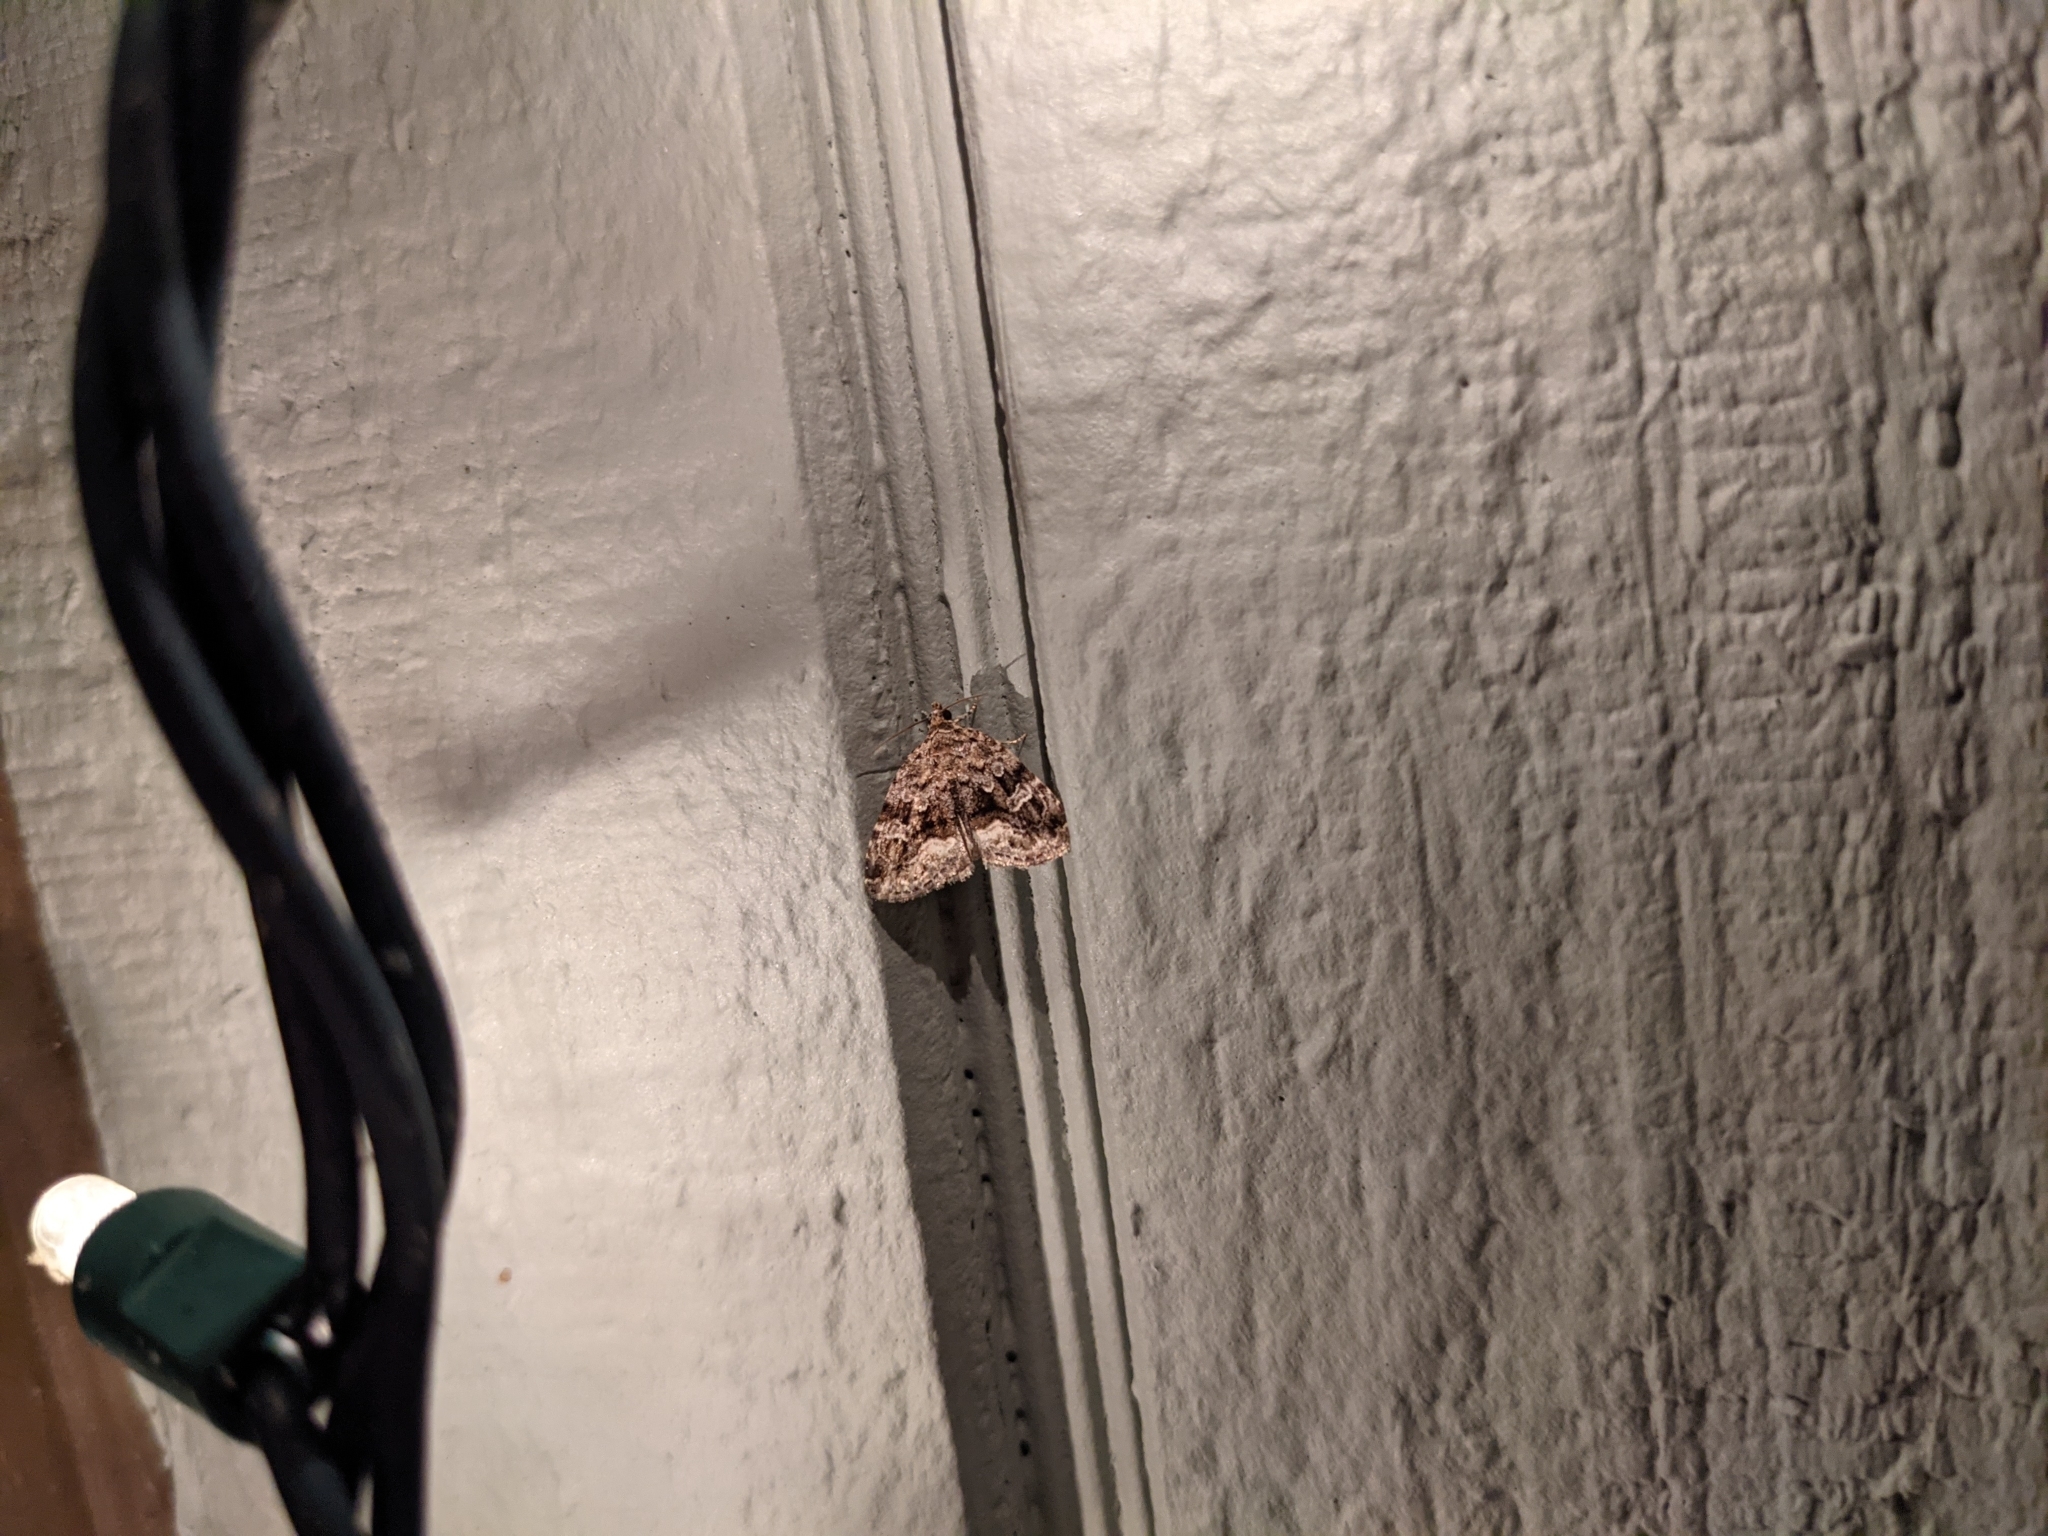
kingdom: Animalia
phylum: Arthropoda
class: Insecta
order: Lepidoptera
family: Noctuidae
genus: Protodeltote
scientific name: Protodeltote muscosula
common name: Large mossy glyph
